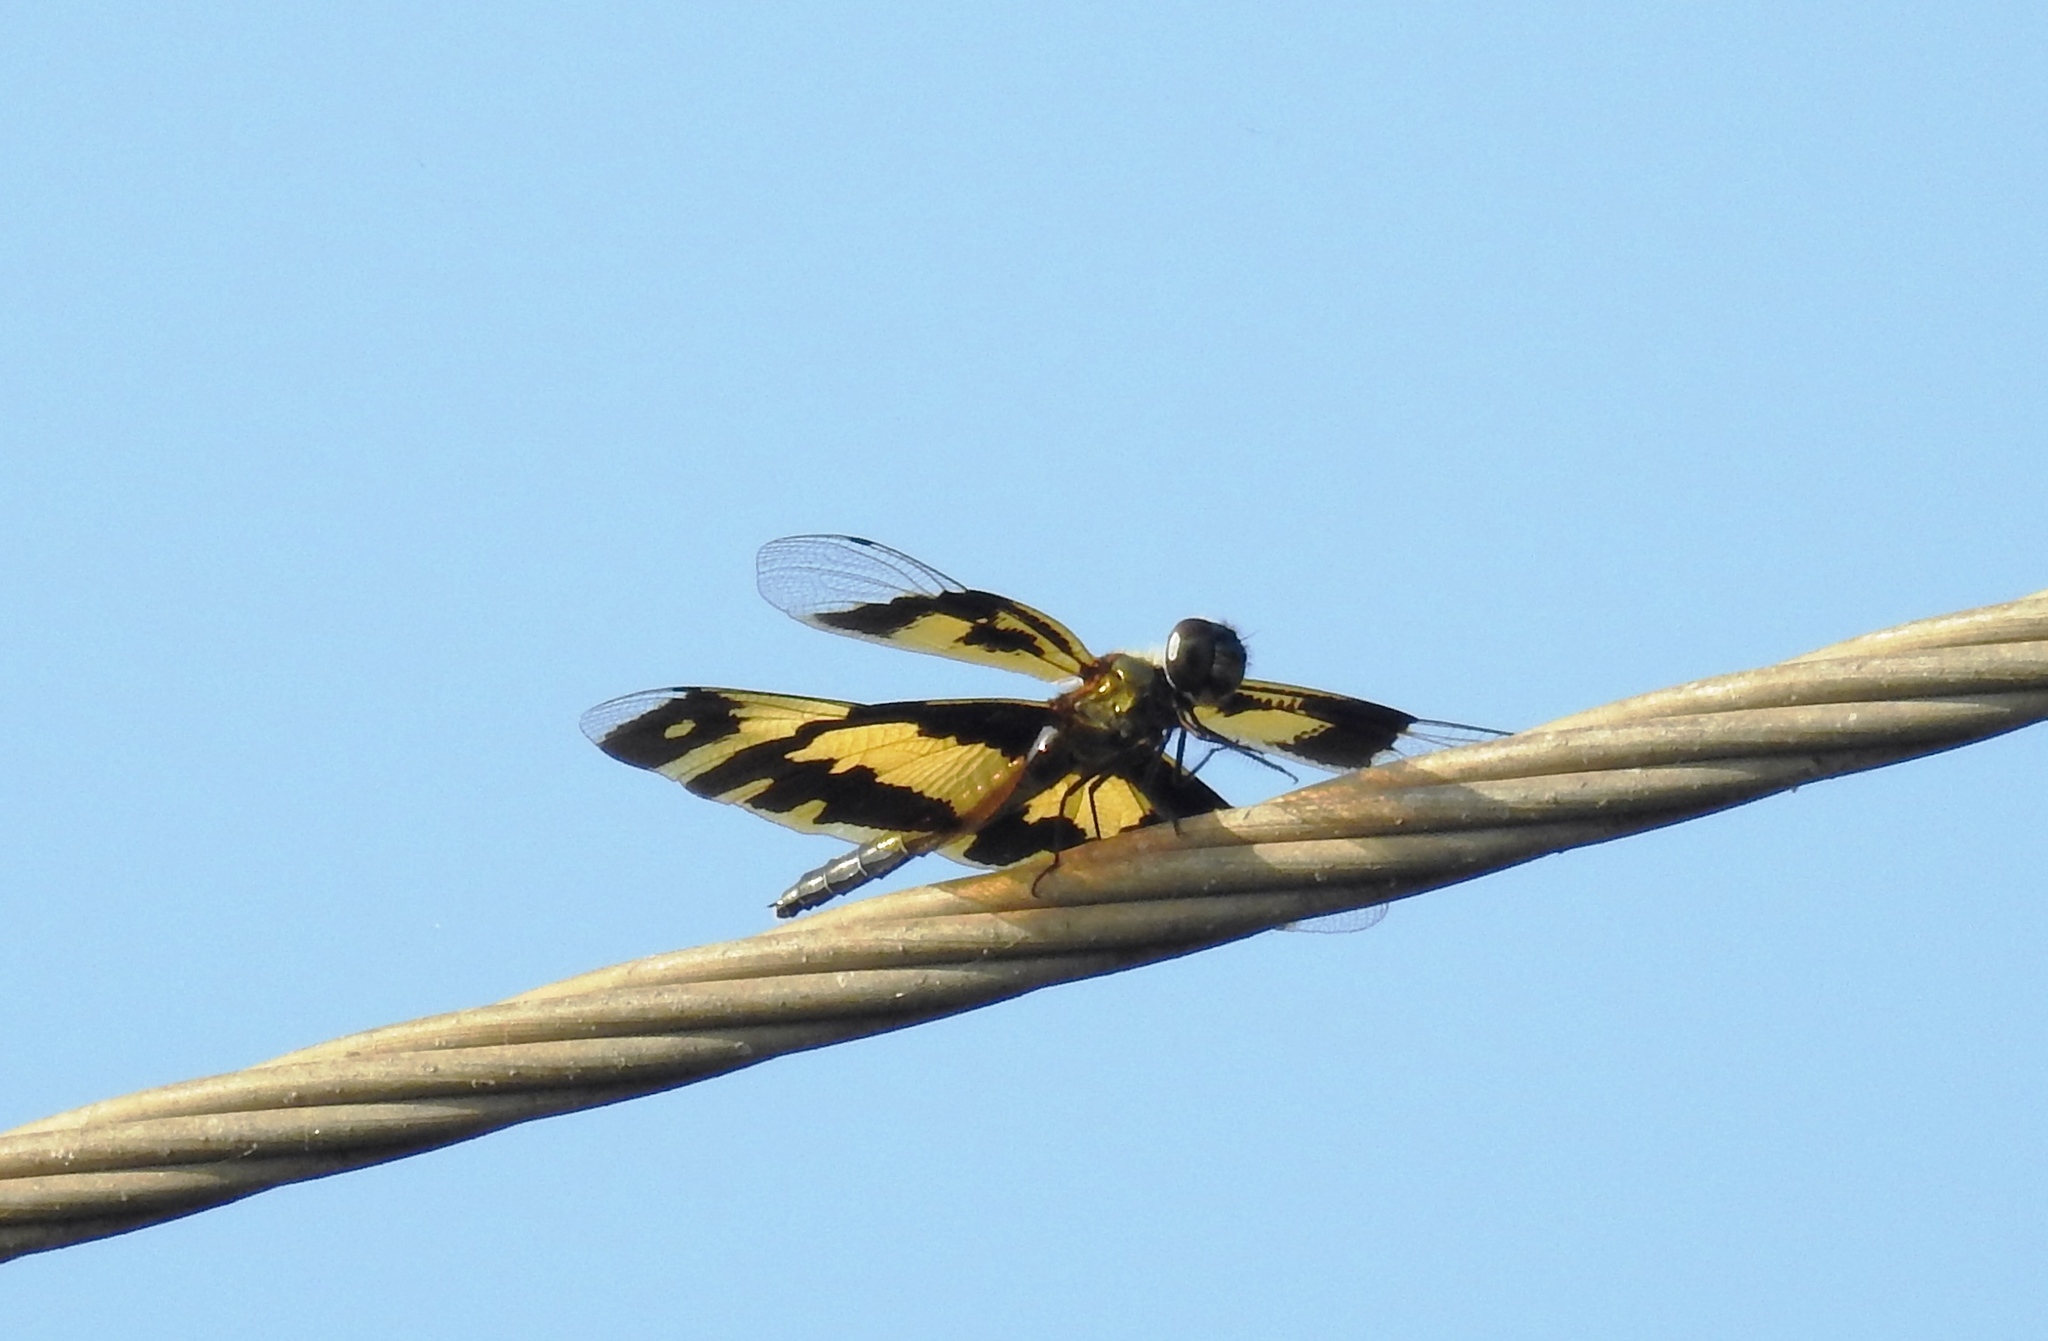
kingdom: Animalia
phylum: Arthropoda
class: Insecta
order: Odonata
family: Libellulidae
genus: Rhyothemis
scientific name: Rhyothemis variegata
